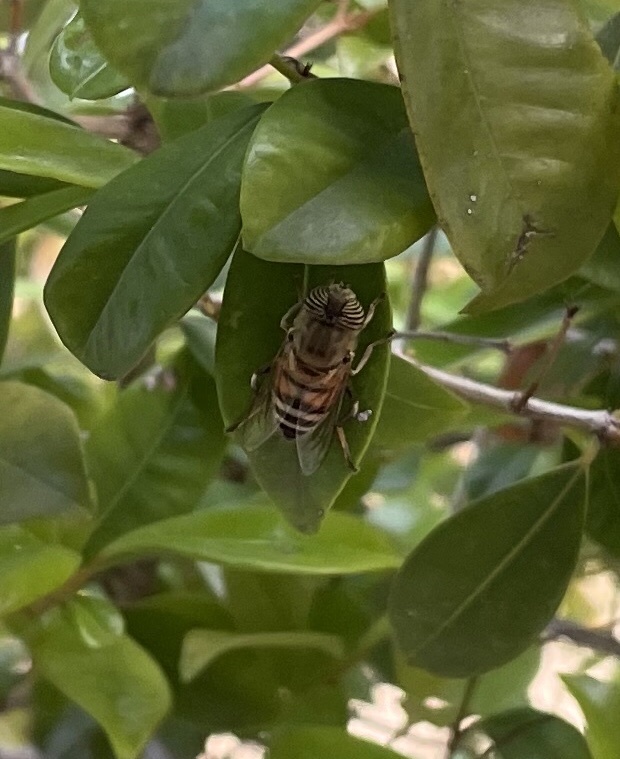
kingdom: Animalia
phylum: Arthropoda
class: Insecta
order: Diptera
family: Syrphidae
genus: Eristalinus
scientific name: Eristalinus taeniops
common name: Syrphid fly
